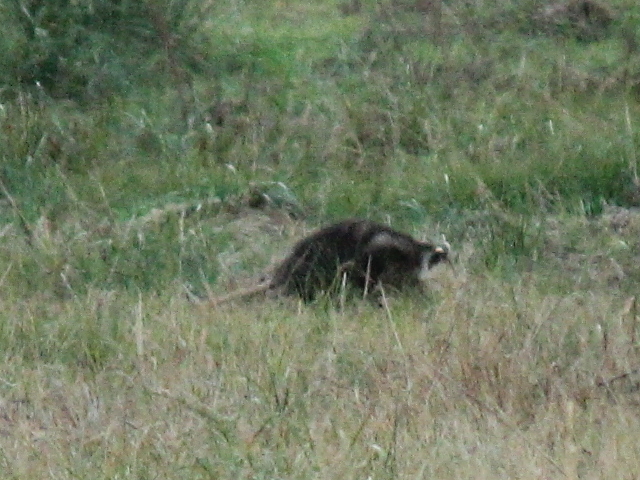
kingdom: Animalia
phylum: Chordata
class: Mammalia
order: Didelphimorphia
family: Didelphidae
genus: Didelphis
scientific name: Didelphis virginiana
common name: Virginia opossum
